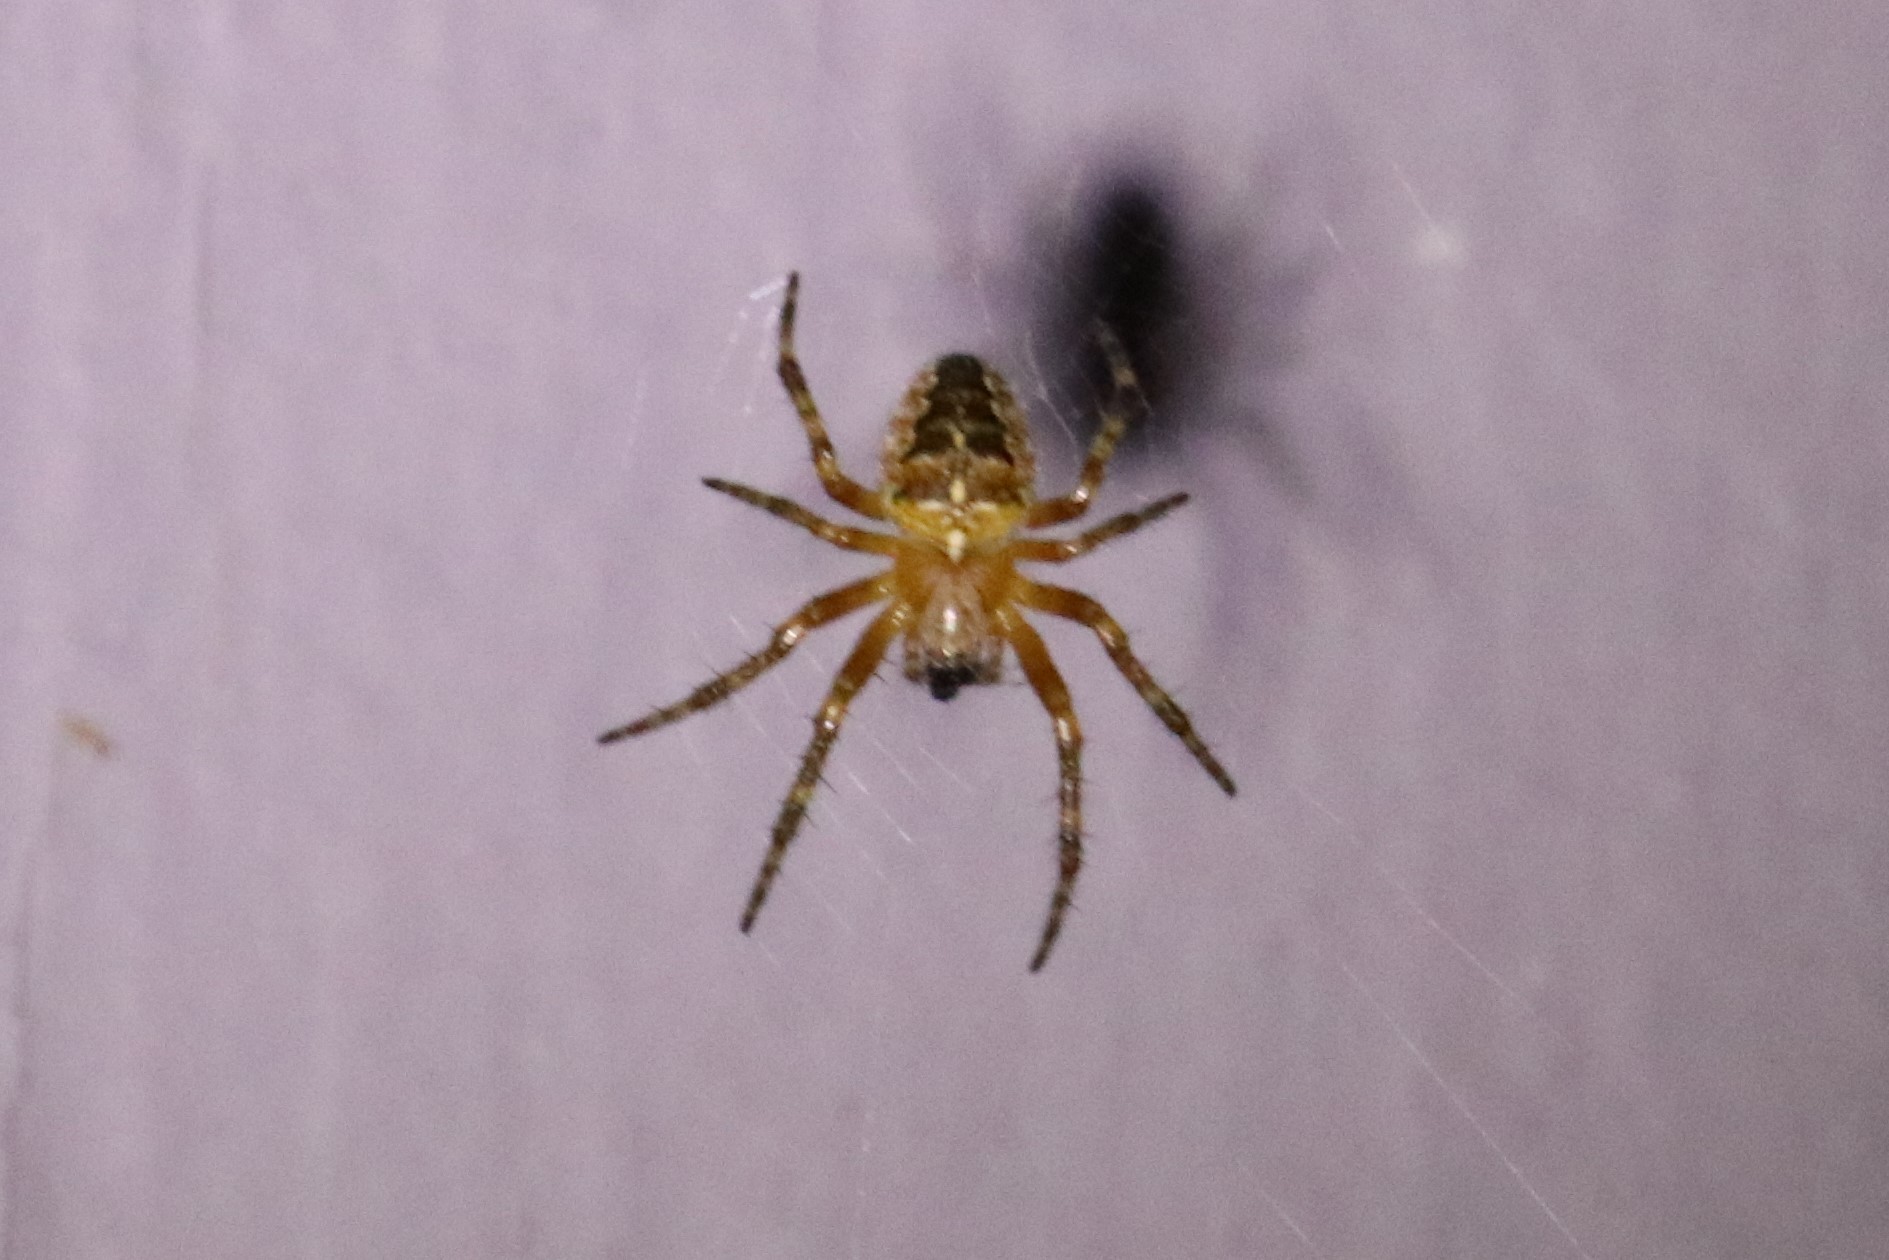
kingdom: Animalia
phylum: Arthropoda
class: Arachnida
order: Araneae
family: Araneidae
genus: Araneus
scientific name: Araneus diadematus
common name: Cross orbweaver
